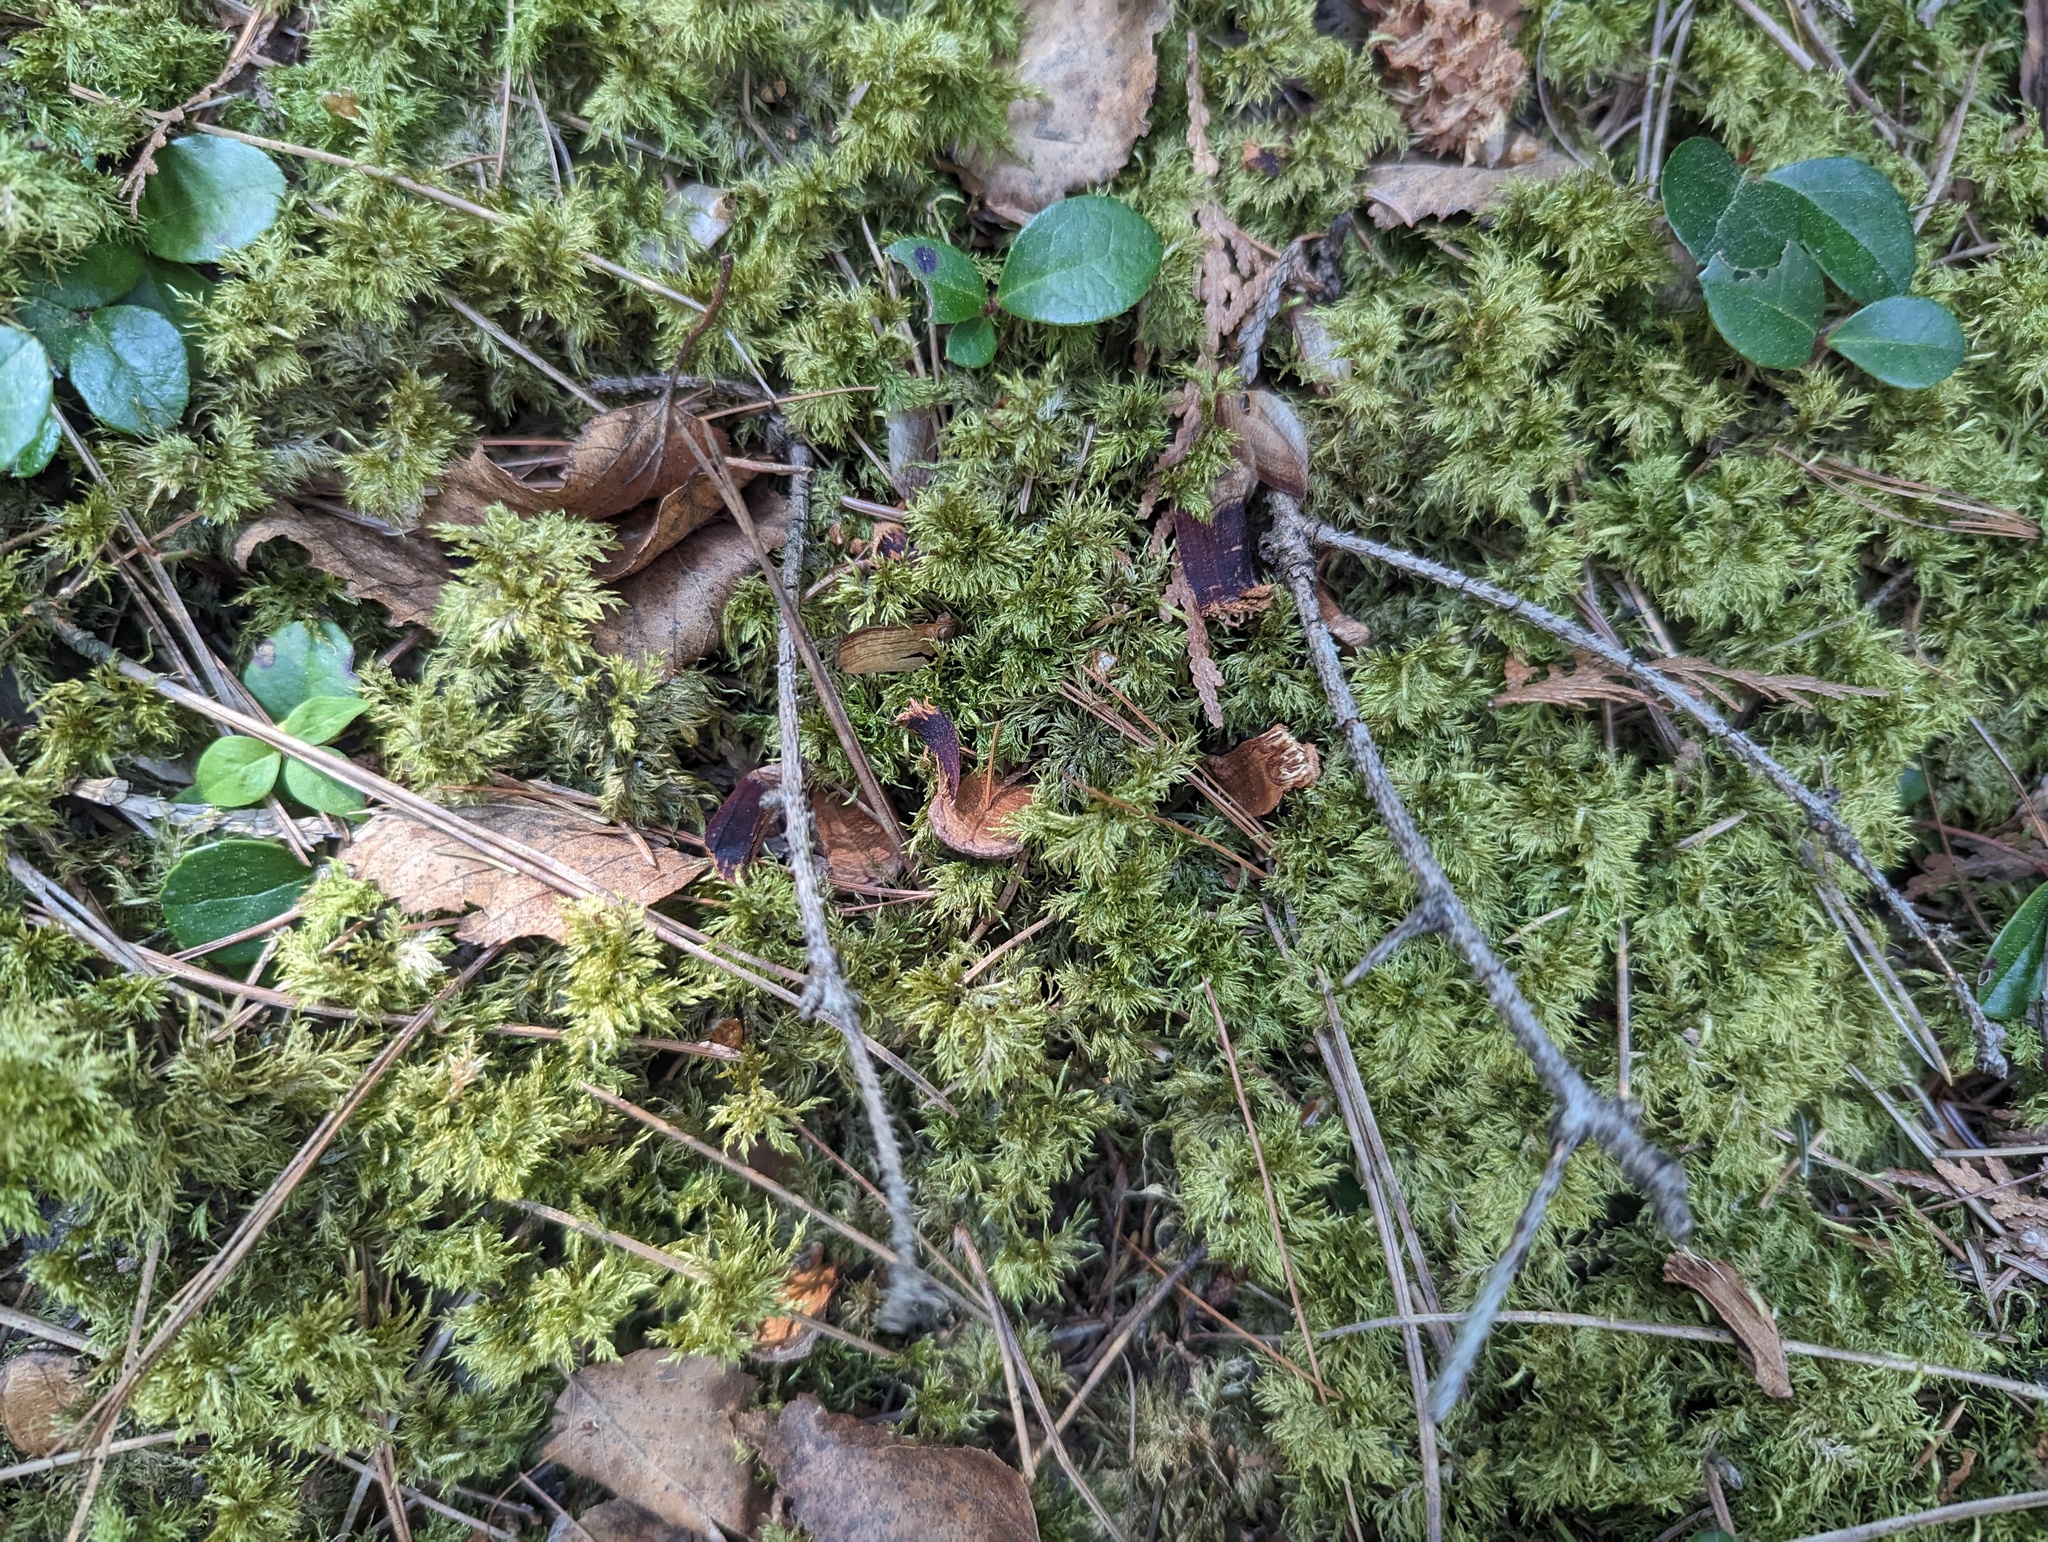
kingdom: Plantae
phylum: Bryophyta
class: Bryopsida
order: Hypnales
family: Hylocomiaceae
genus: Hylocomium
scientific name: Hylocomium splendens
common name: Stairstep moss
